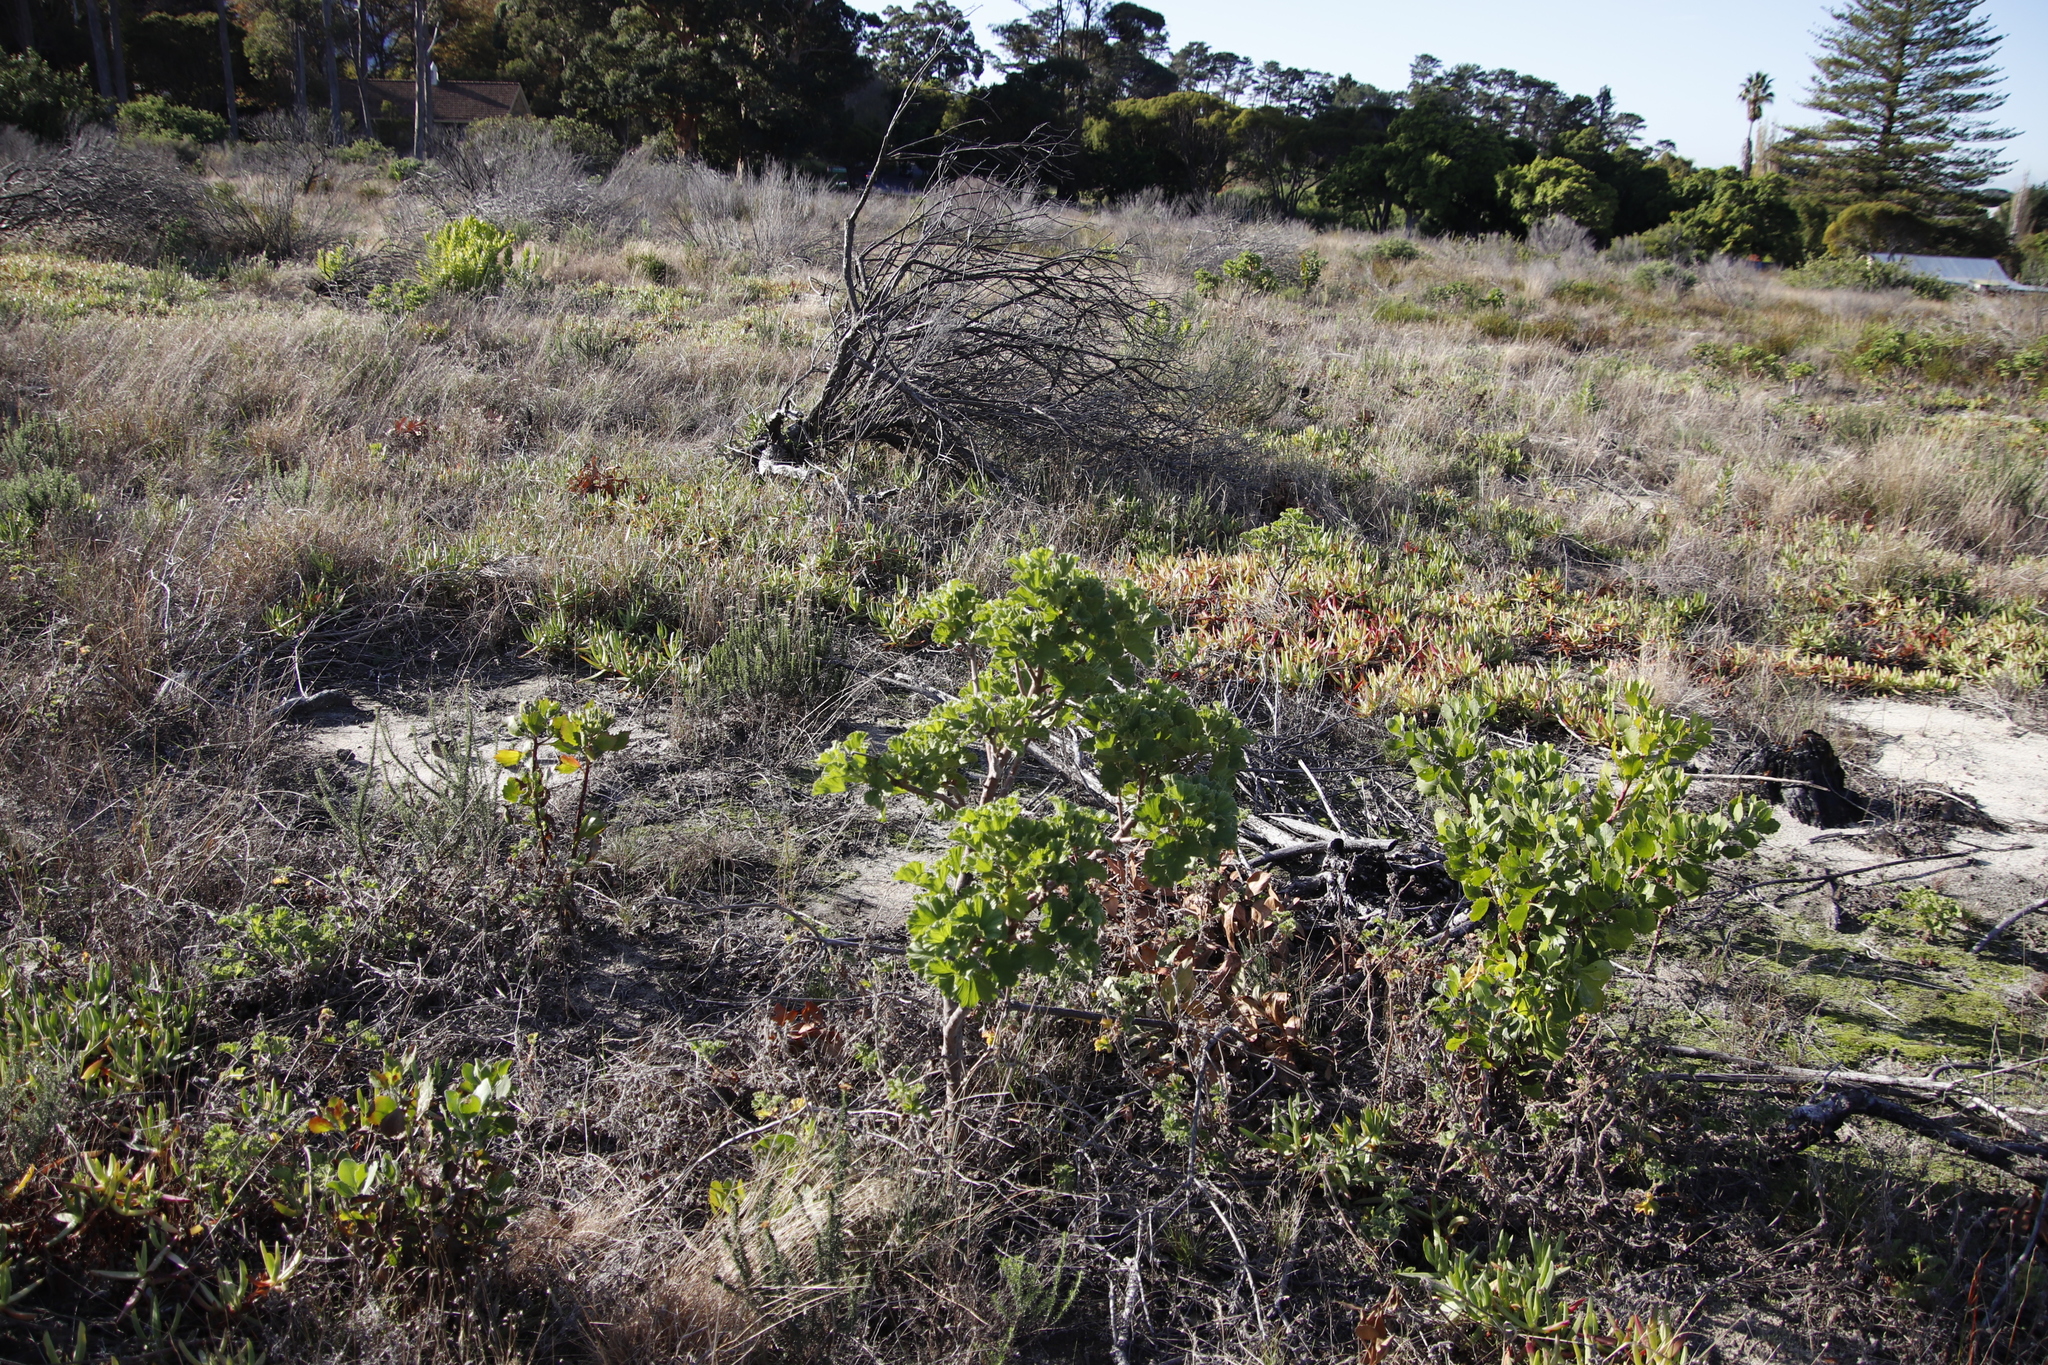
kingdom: Plantae
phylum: Tracheophyta
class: Magnoliopsida
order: Geraniales
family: Geraniaceae
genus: Pelargonium
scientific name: Pelargonium cucullatum
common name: Tree pelargonium
